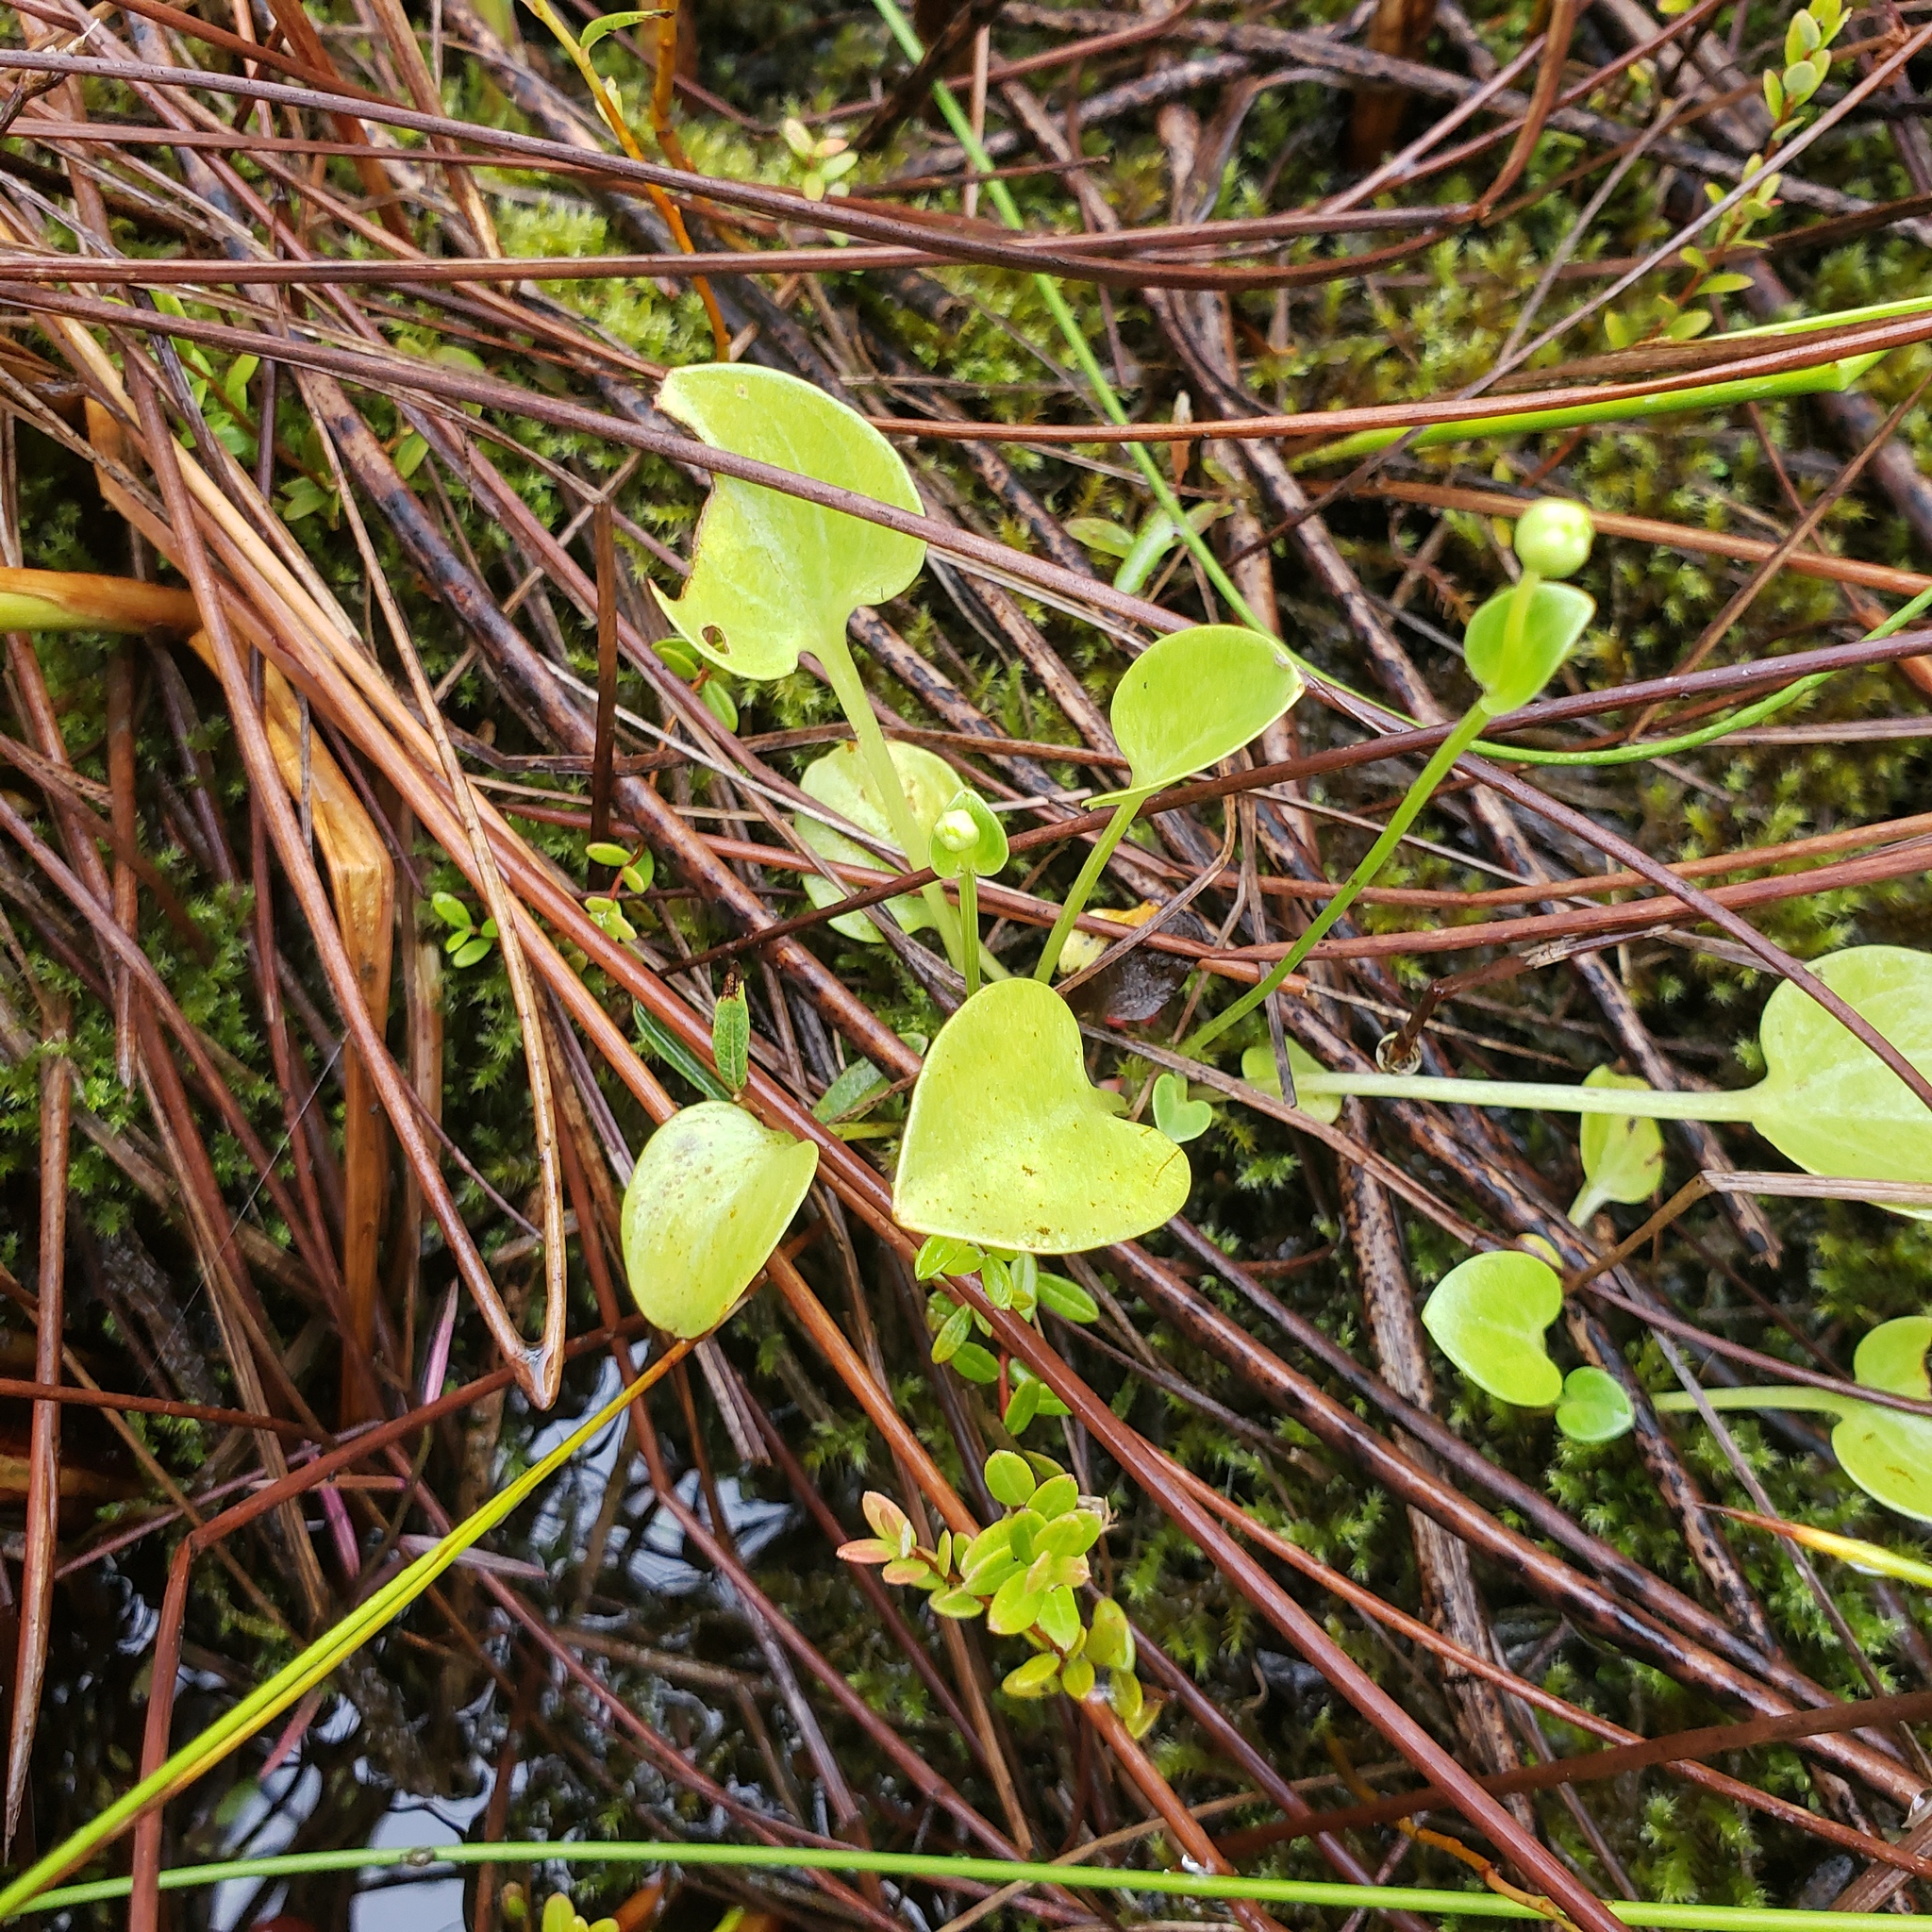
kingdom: Plantae
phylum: Tracheophyta
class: Magnoliopsida
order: Celastrales
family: Parnassiaceae
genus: Parnassia
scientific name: Parnassia glauca
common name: American grass-of-parnassus
